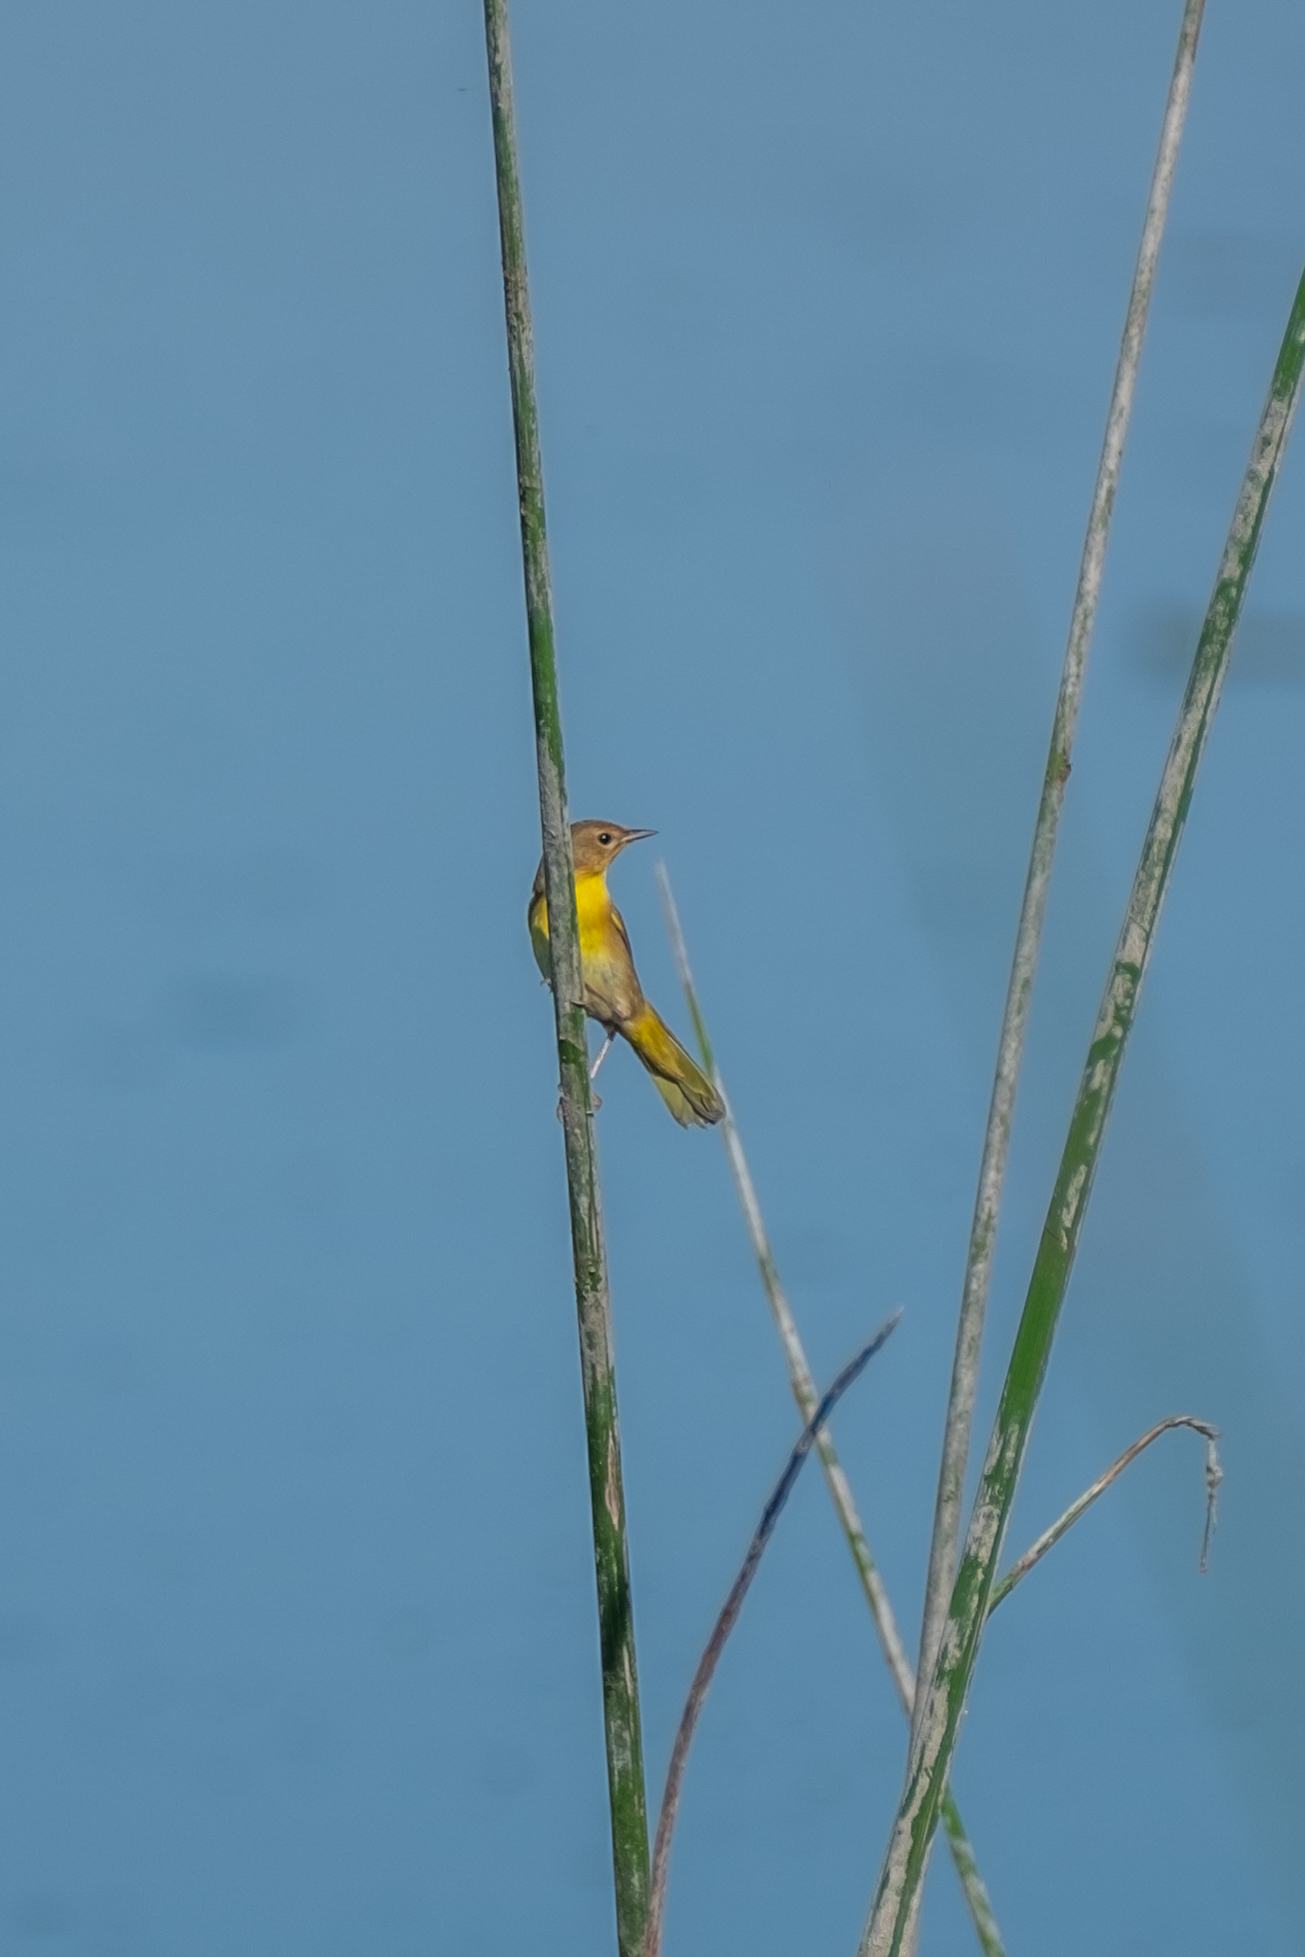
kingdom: Animalia
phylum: Chordata
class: Aves
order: Passeriformes
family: Parulidae
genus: Geothlypis
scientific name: Geothlypis trichas
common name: Common yellowthroat
